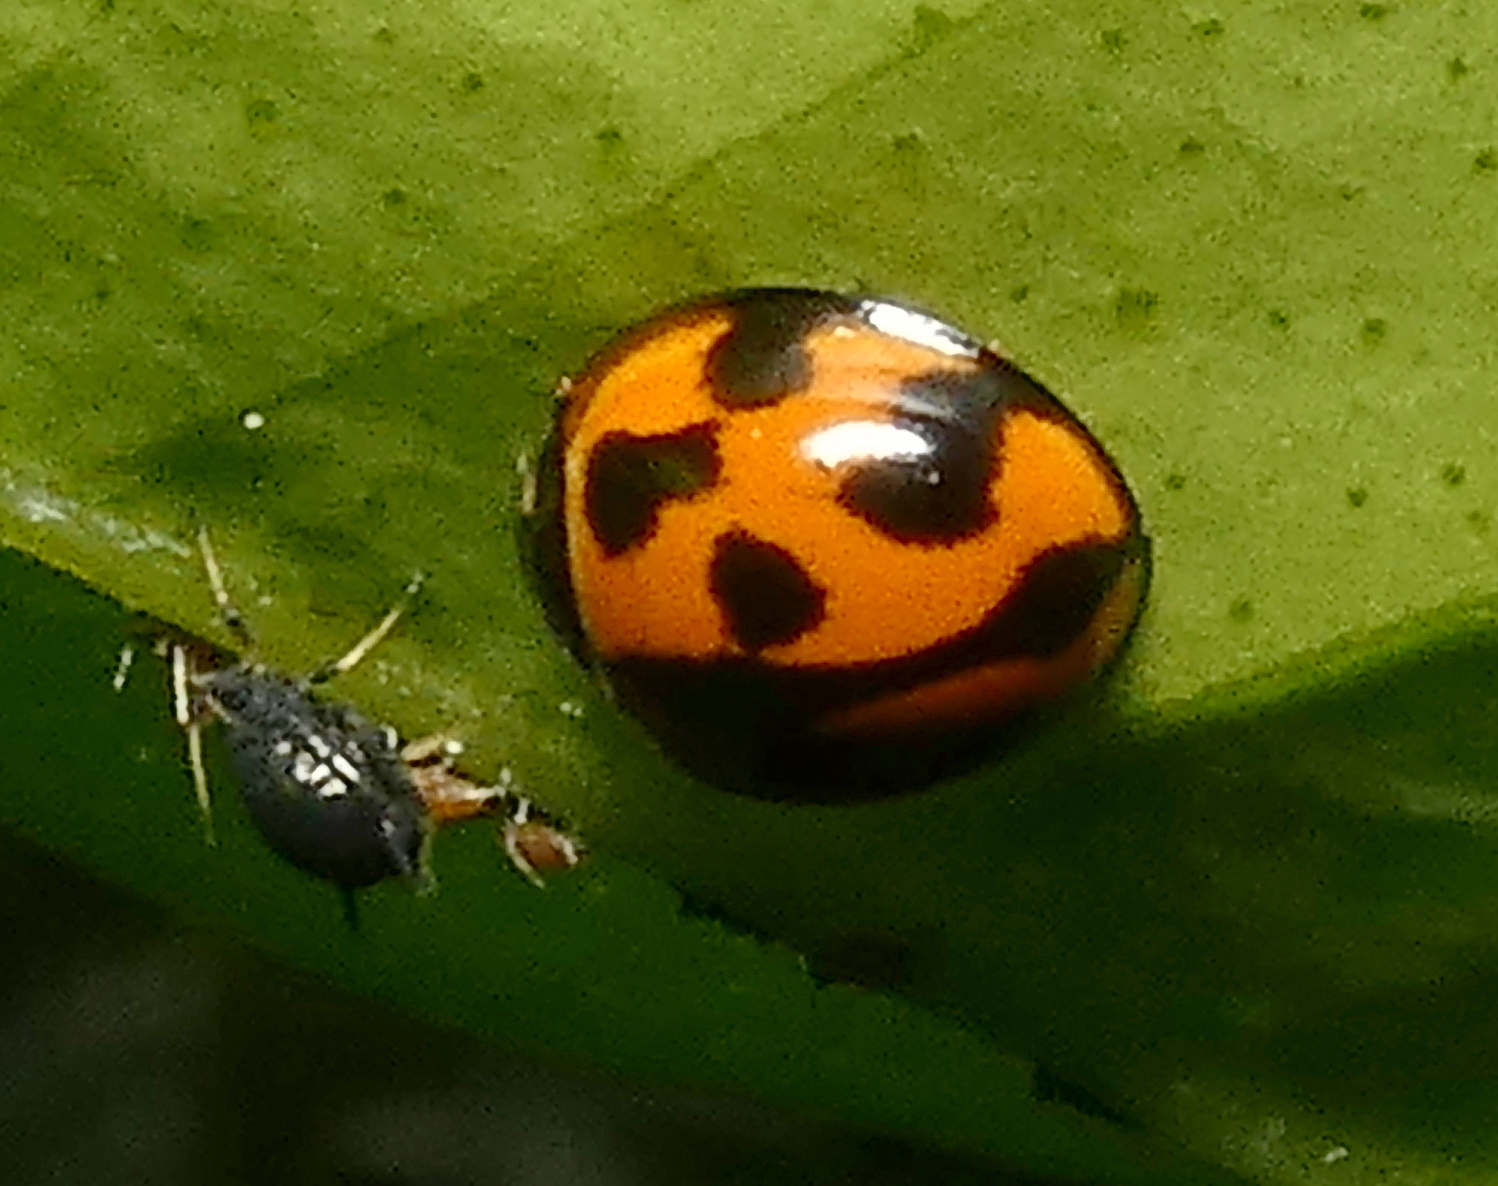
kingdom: Animalia
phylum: Arthropoda
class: Insecta
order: Coleoptera
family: Coccinellidae
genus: Coelophora
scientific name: Coelophora inaequalis
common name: Common australian lady beetle
